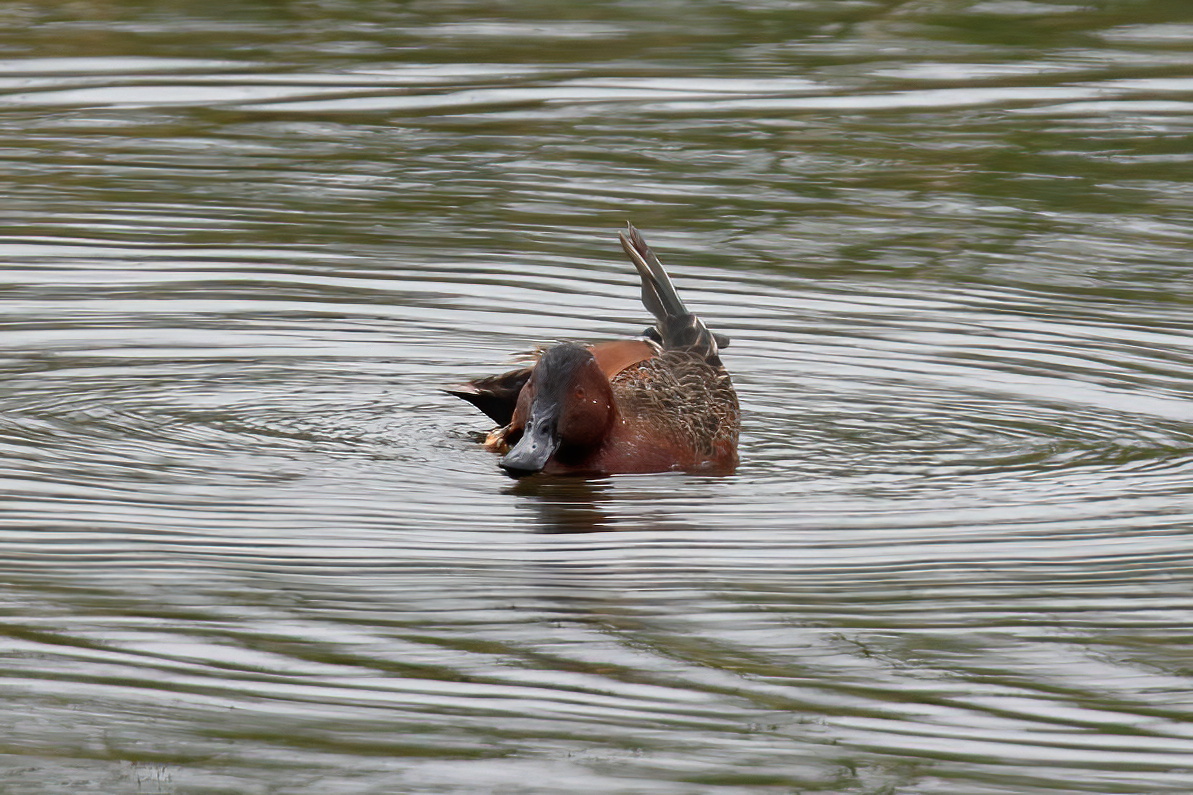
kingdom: Animalia
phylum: Chordata
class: Aves
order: Anseriformes
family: Anatidae
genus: Spatula
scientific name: Spatula cyanoptera
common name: Cinnamon teal
